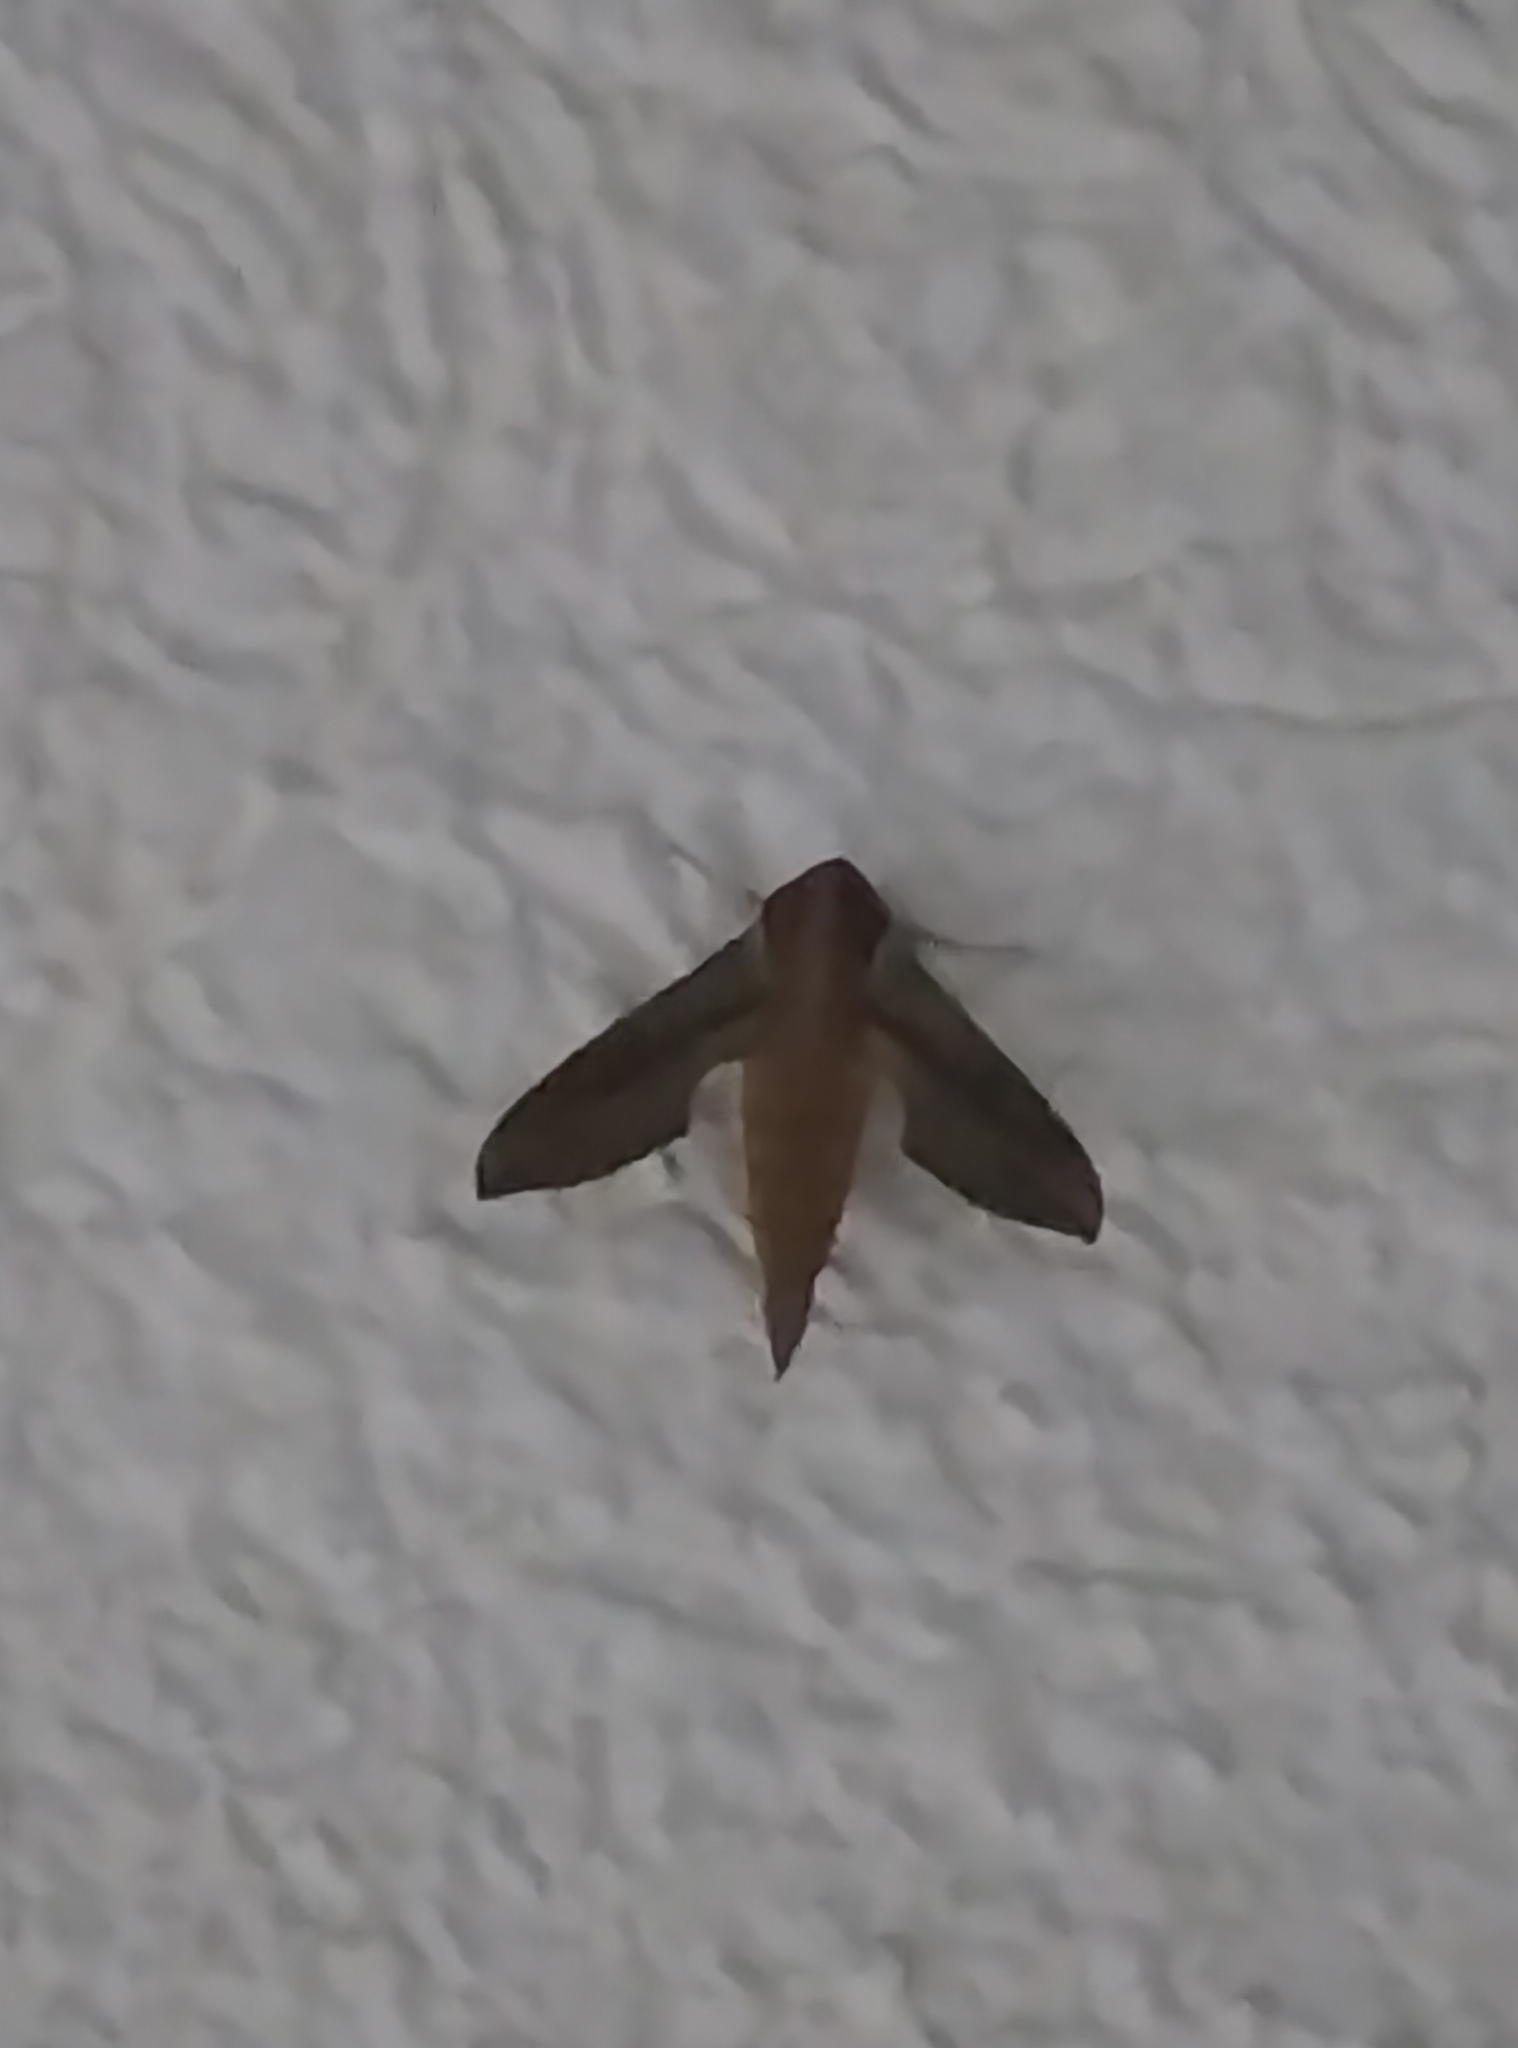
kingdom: Animalia
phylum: Arthropoda
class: Insecta
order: Lepidoptera
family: Sphingidae
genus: Hippotion
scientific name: Hippotion rosetta
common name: Vine hawk moth
